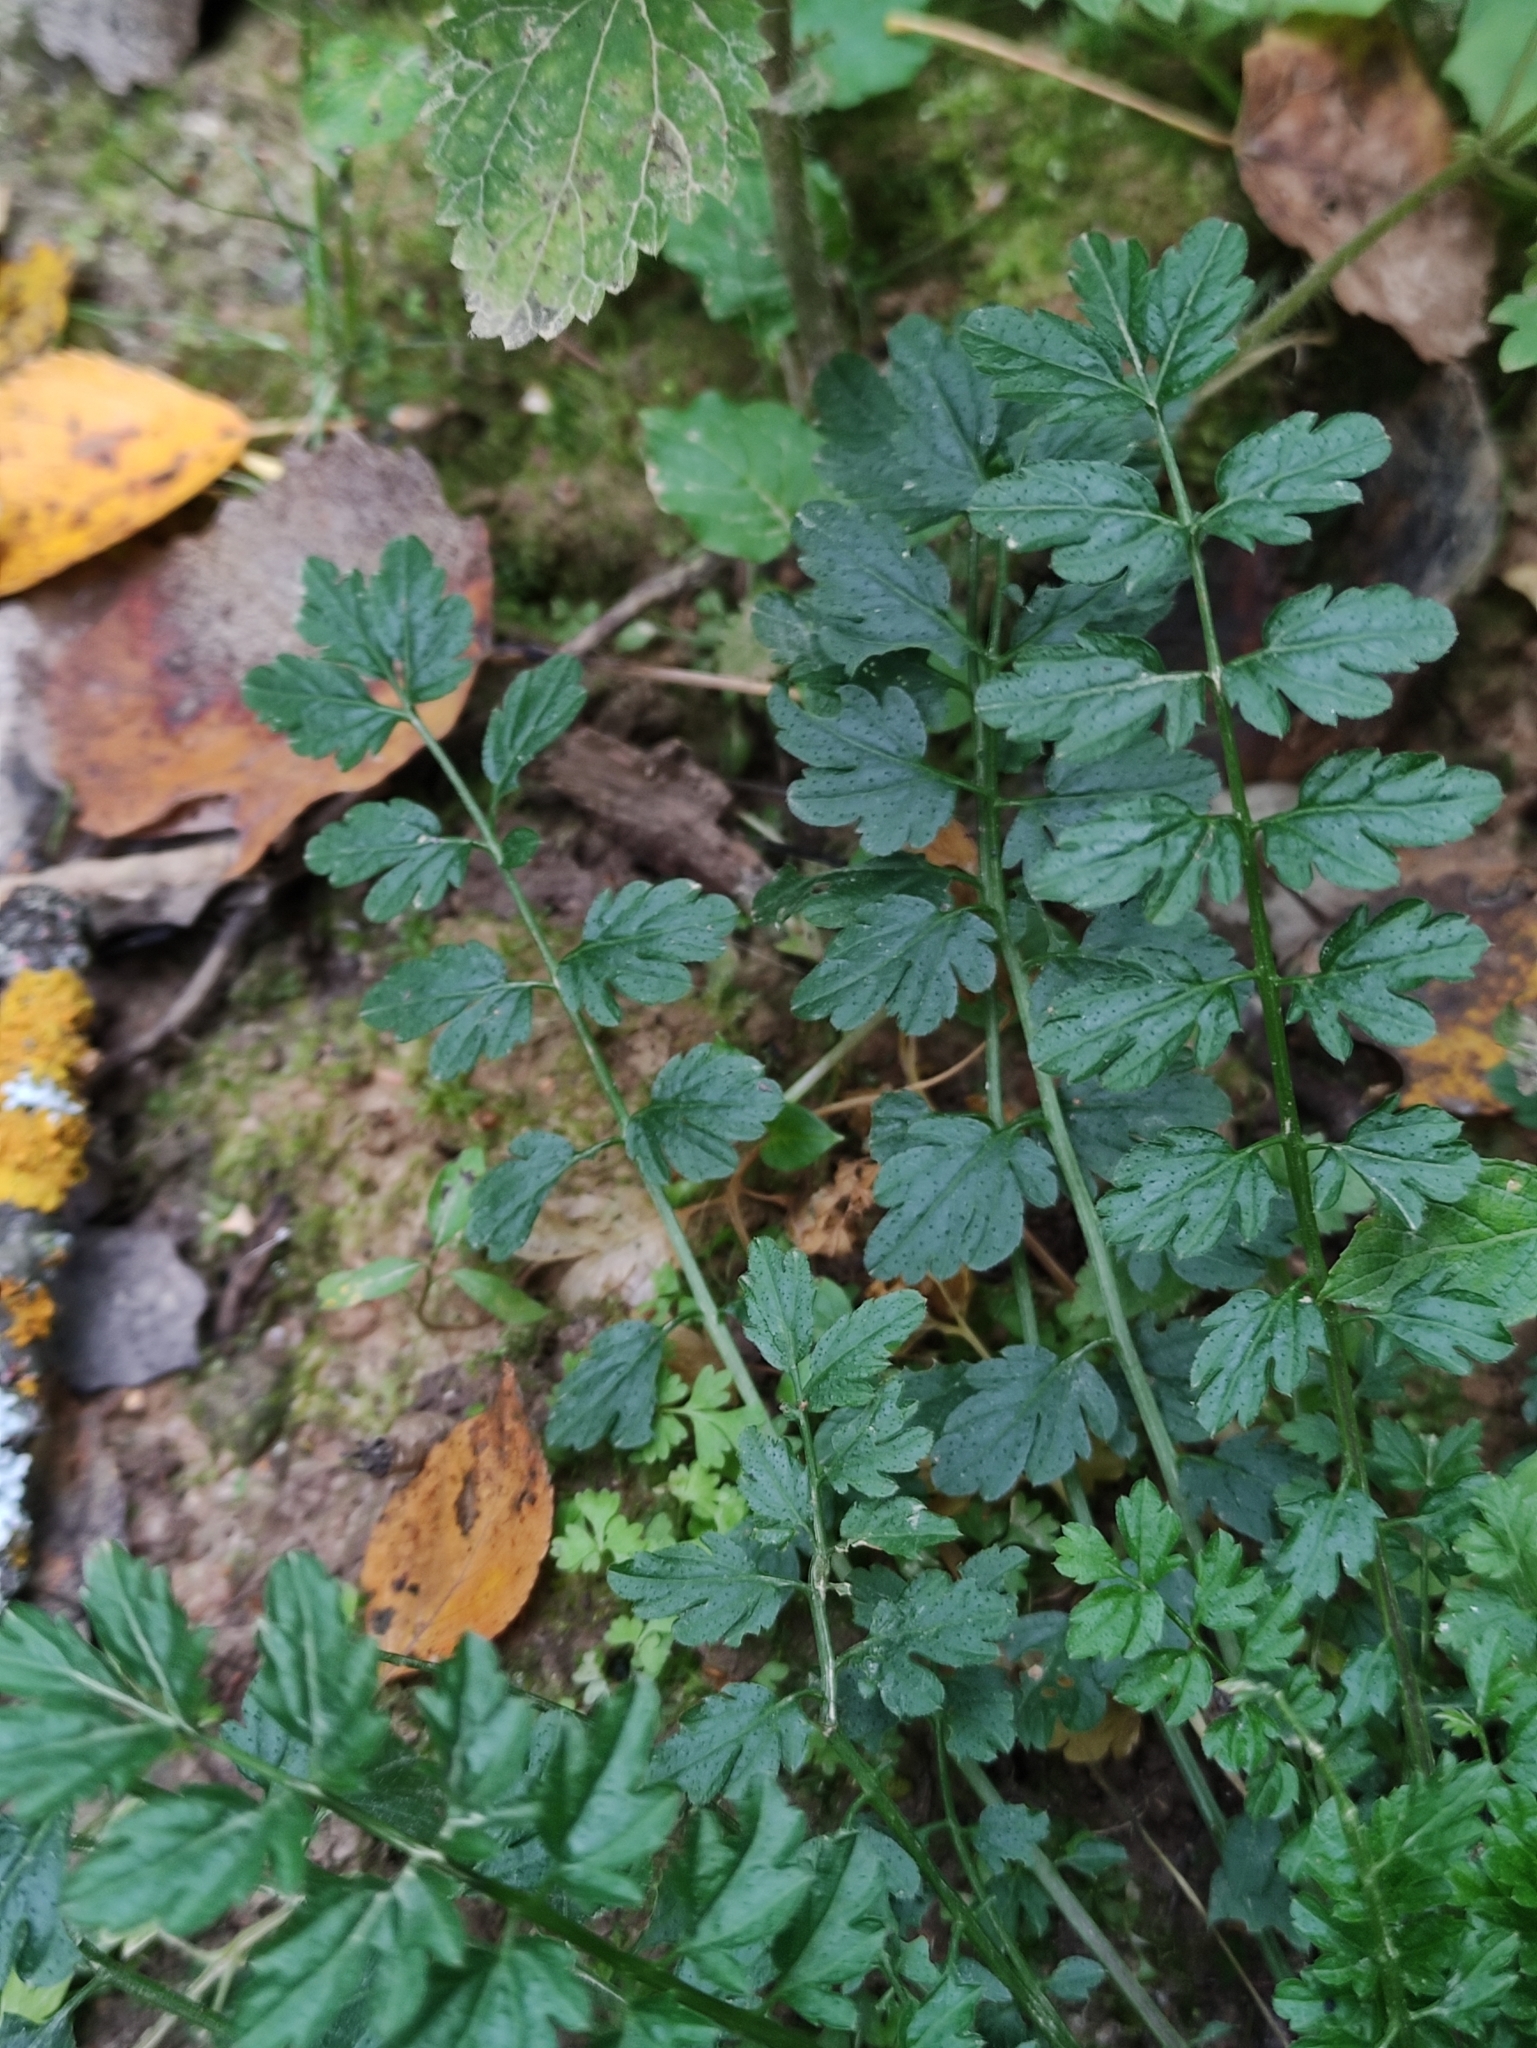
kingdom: Plantae
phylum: Tracheophyta
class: Magnoliopsida
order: Brassicales
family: Brassicaceae
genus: Cardamine
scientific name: Cardamine impatiens
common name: Narrow-leaved bitter-cress
